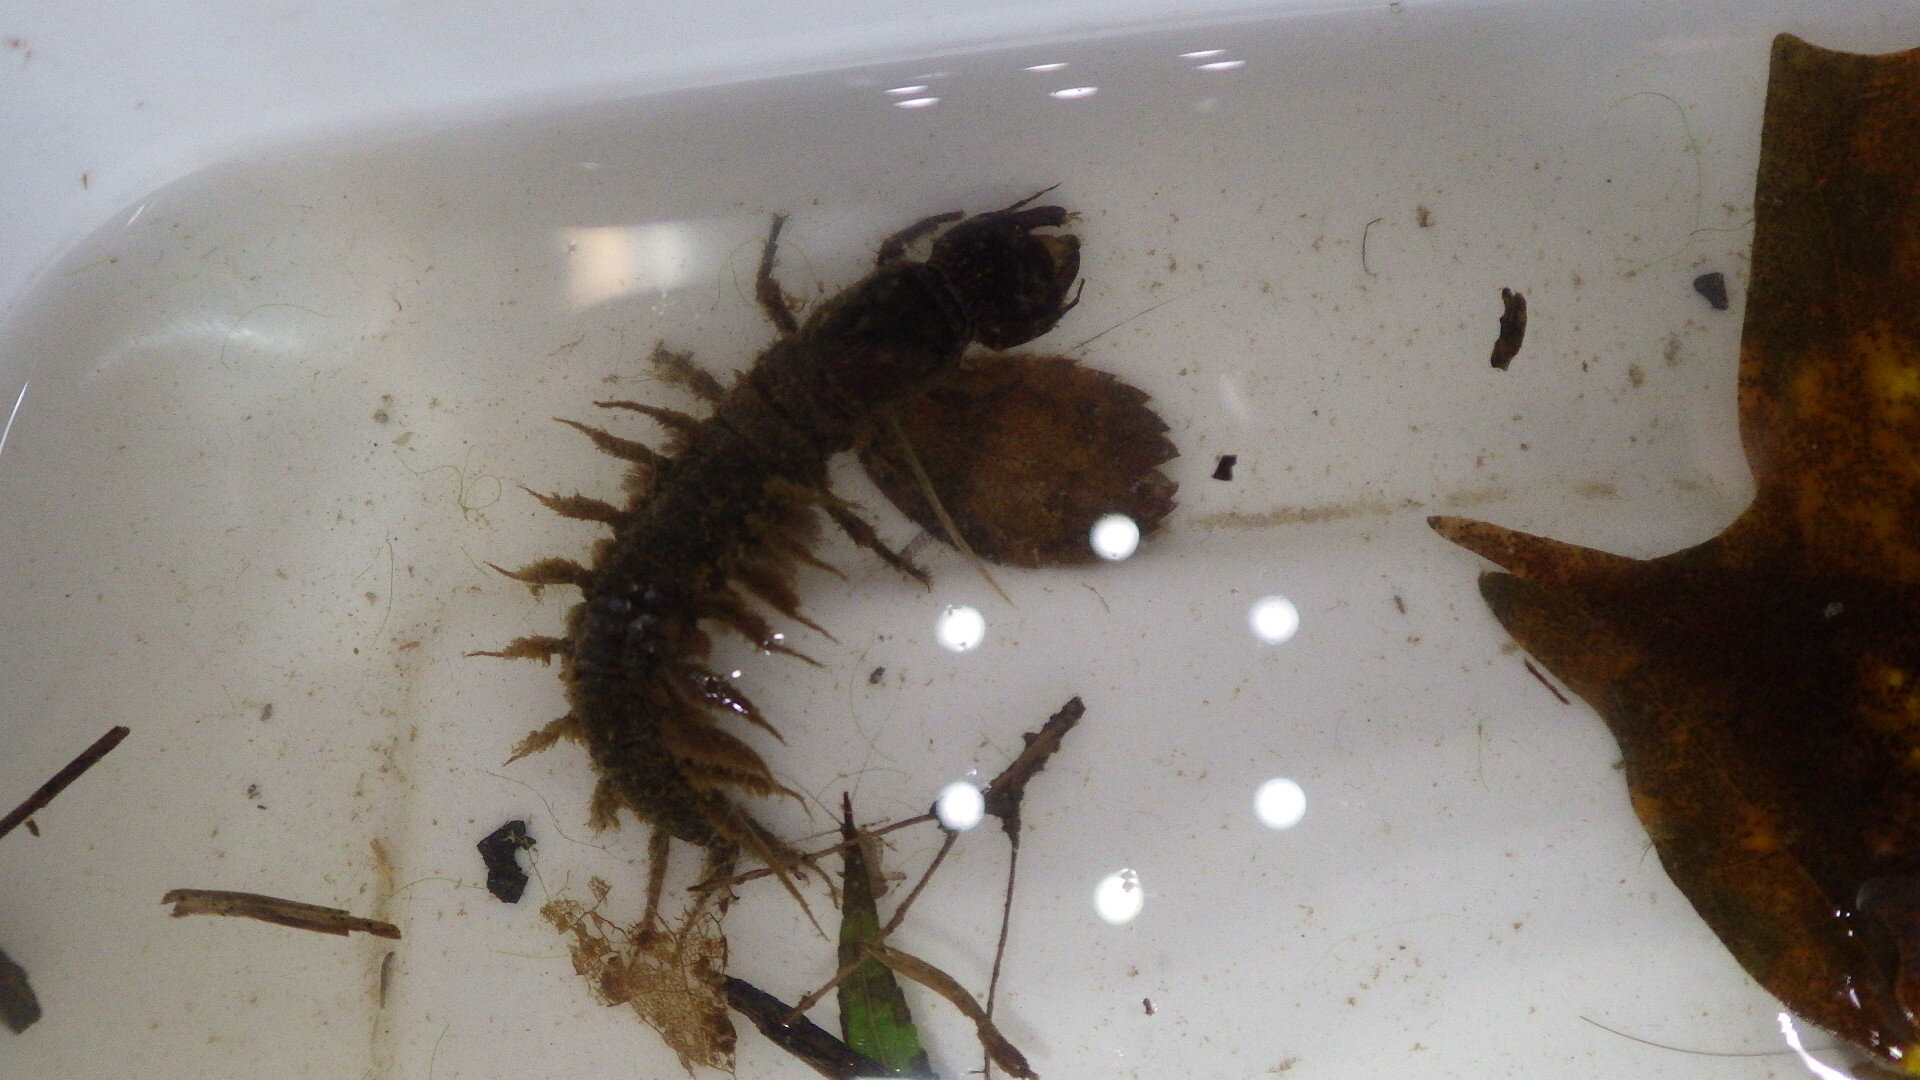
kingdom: Animalia
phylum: Arthropoda
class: Insecta
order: Megaloptera
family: Corydalidae
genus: Corydalus
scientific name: Corydalus cornutus
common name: Dobsonfly
